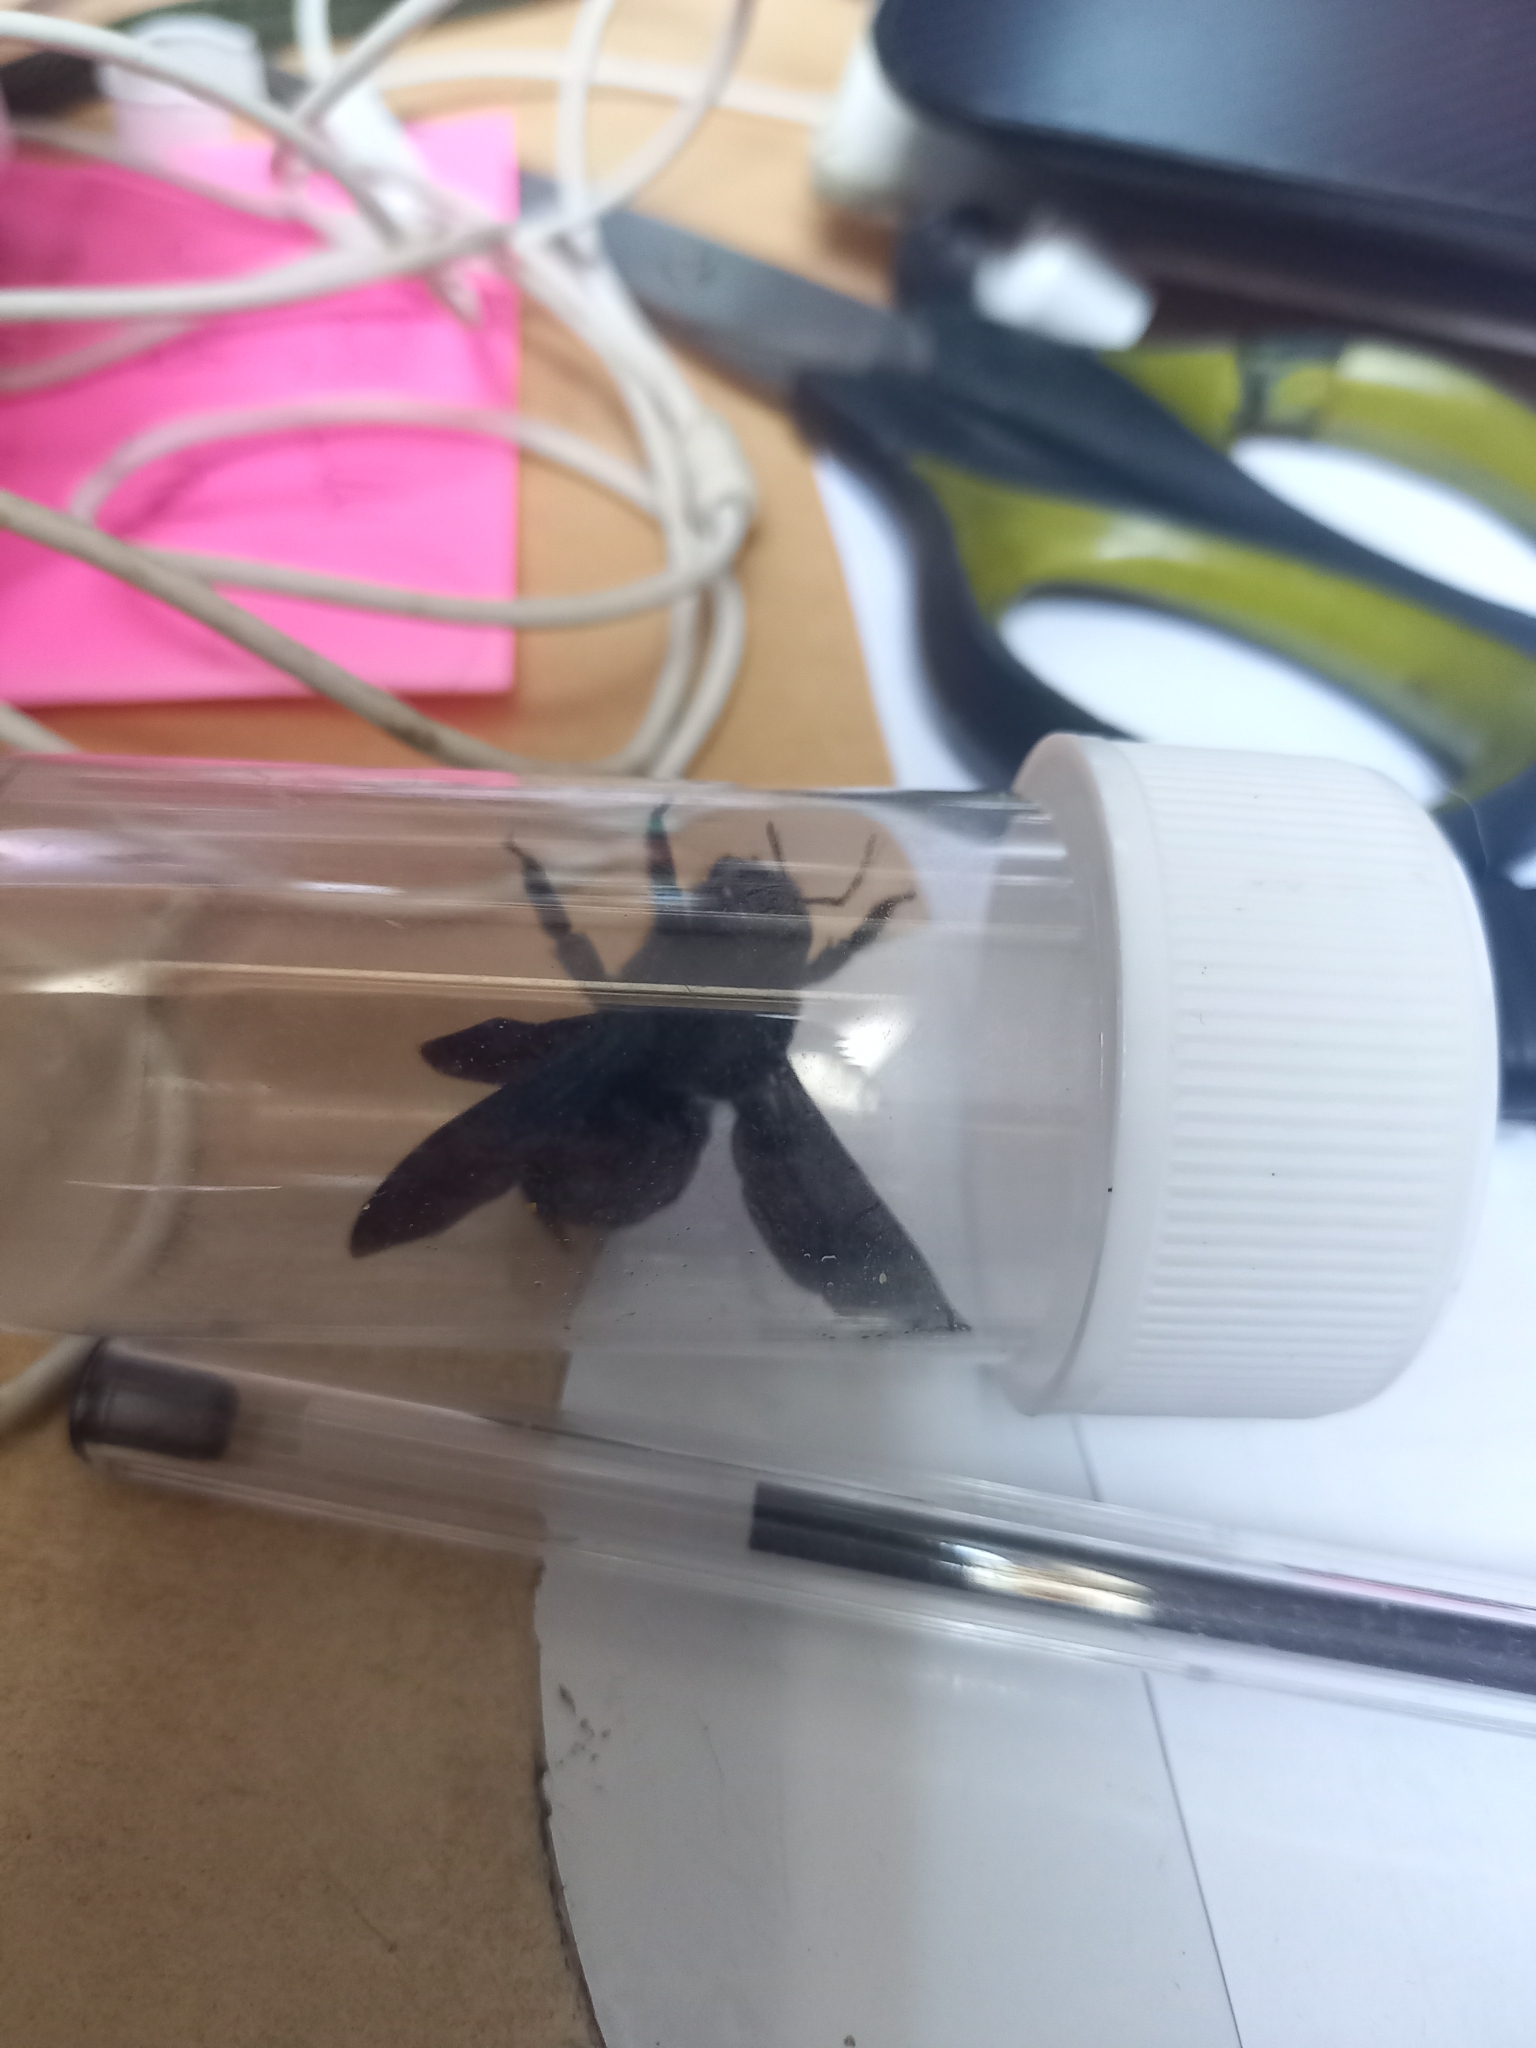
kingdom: Animalia
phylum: Arthropoda
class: Insecta
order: Hymenoptera
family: Apidae
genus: Xylocopa
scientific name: Xylocopa violacea
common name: Violet carpenter bee
